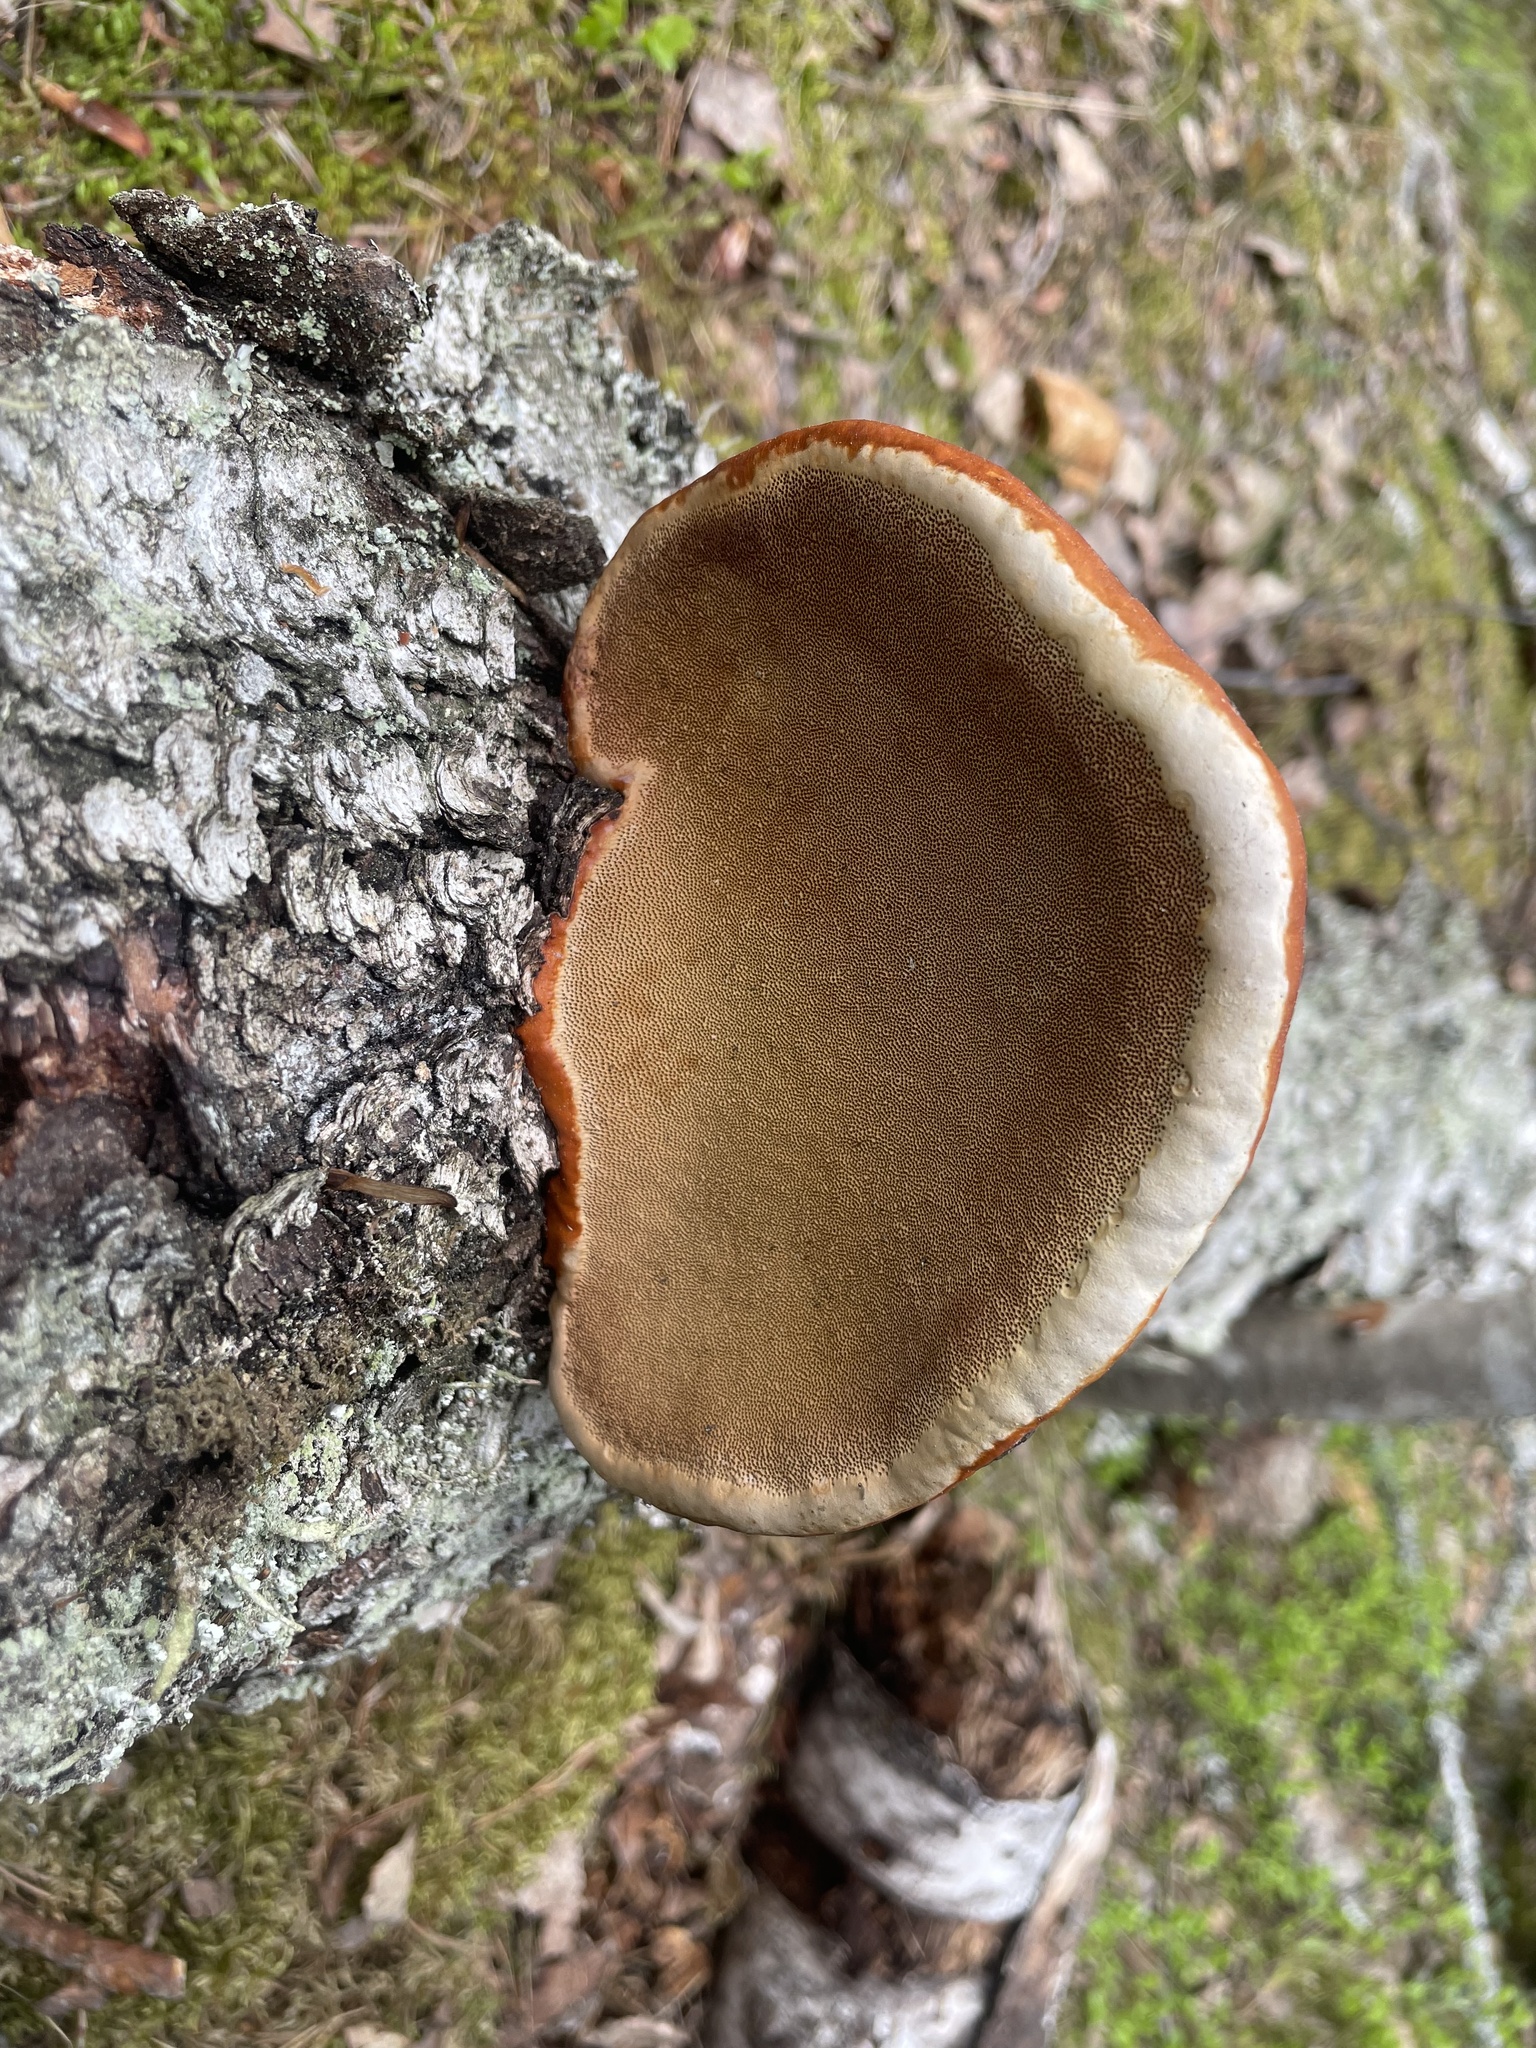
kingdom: Fungi
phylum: Basidiomycota
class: Agaricomycetes
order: Polyporales
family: Fomitopsidaceae
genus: Fomitopsis
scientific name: Fomitopsis pinicola
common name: Red-belted bracket
